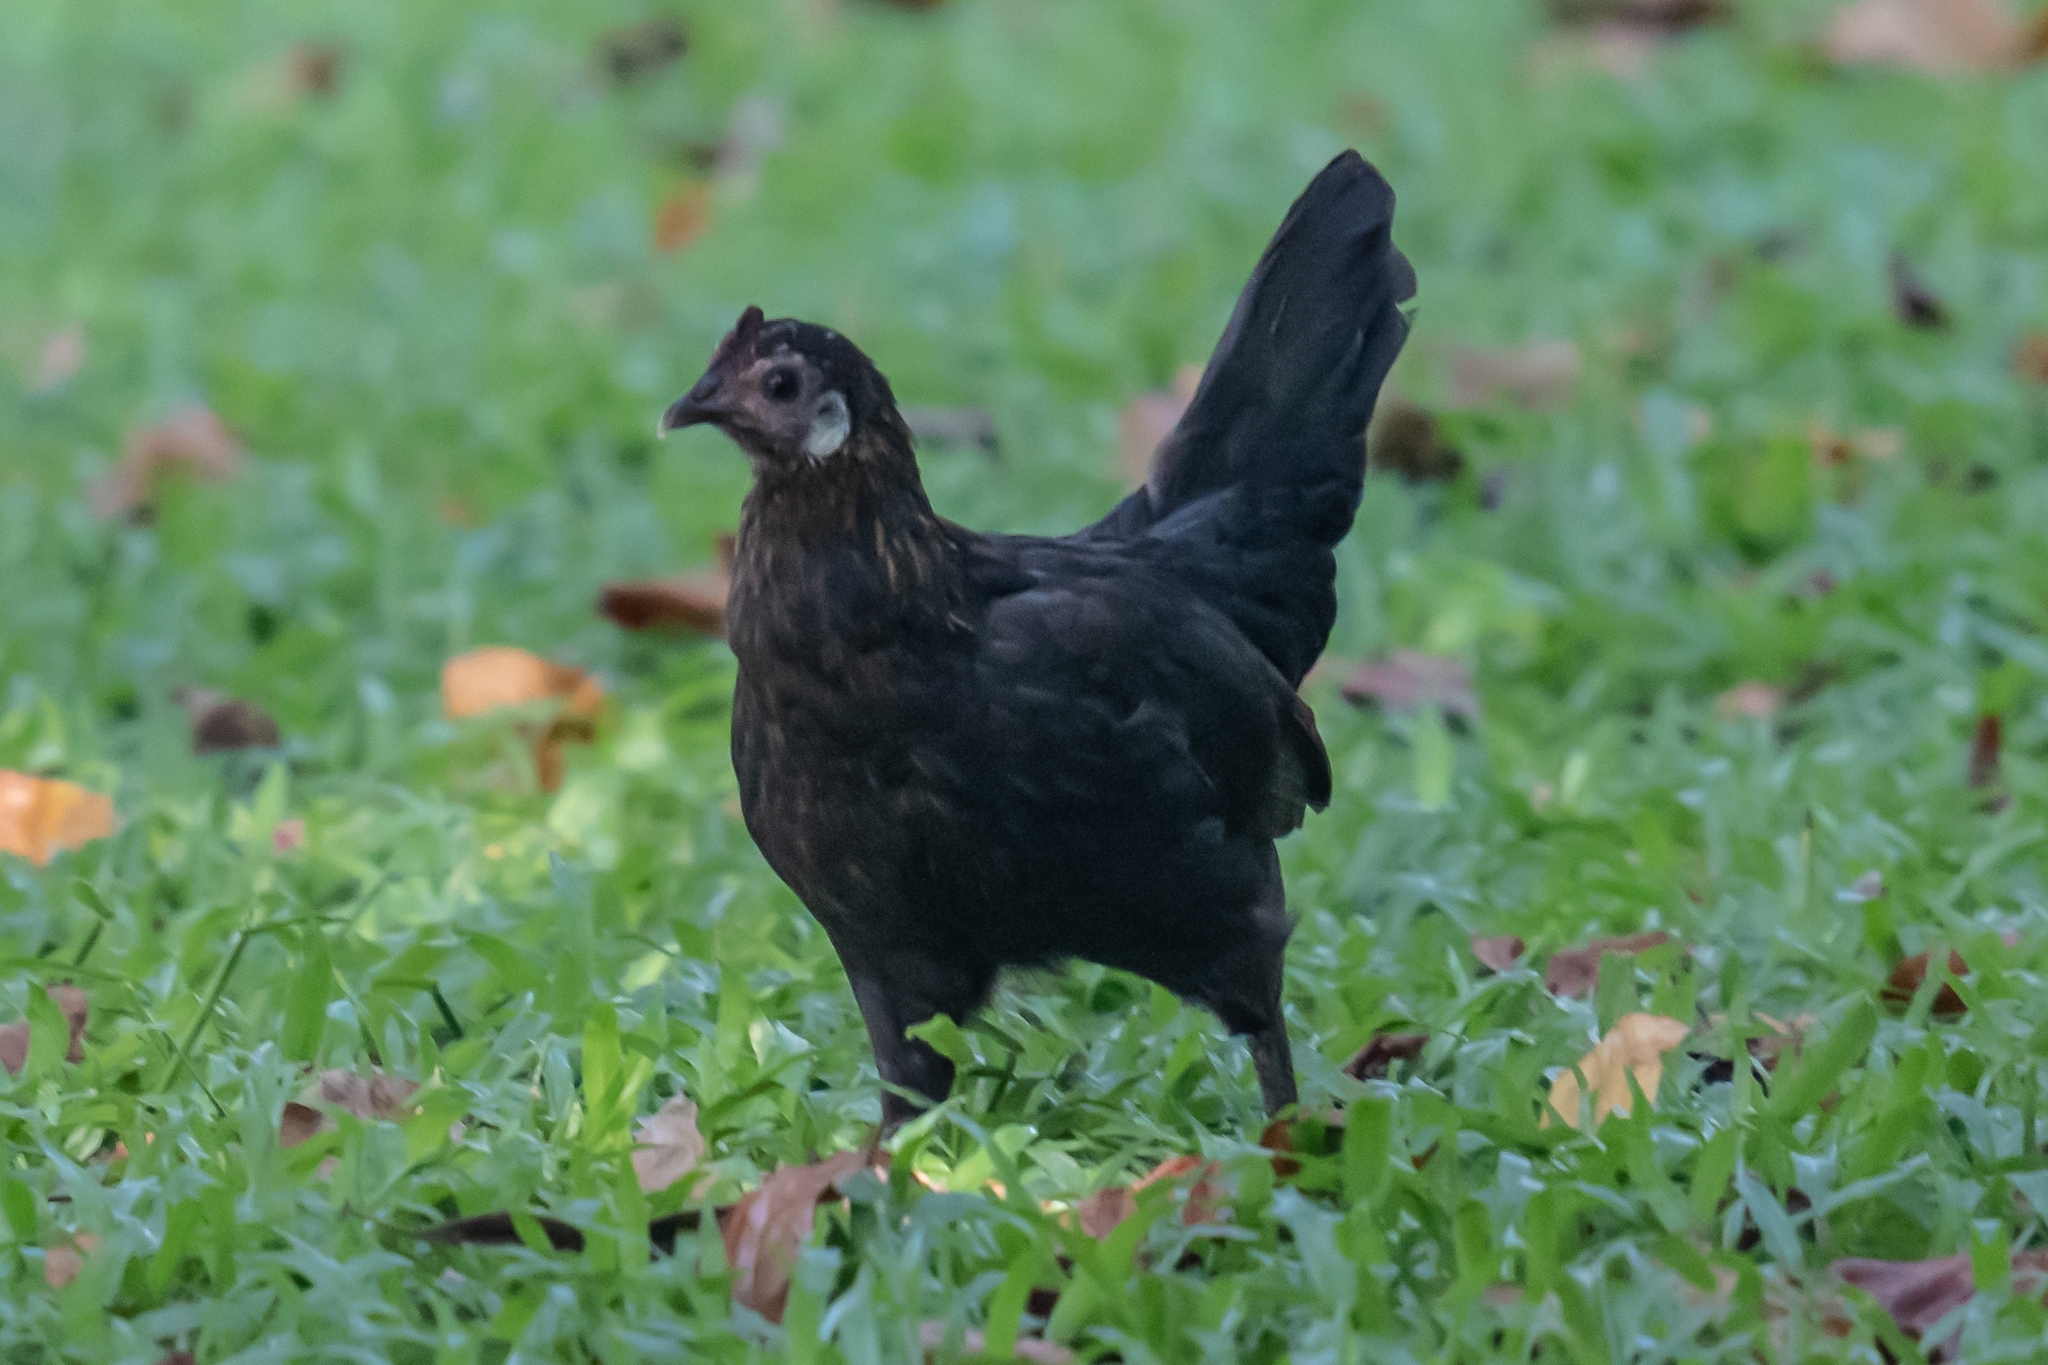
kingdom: Animalia
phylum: Chordata
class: Aves
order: Galliformes
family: Phasianidae
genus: Gallus
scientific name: Gallus gallus
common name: Red junglefowl
